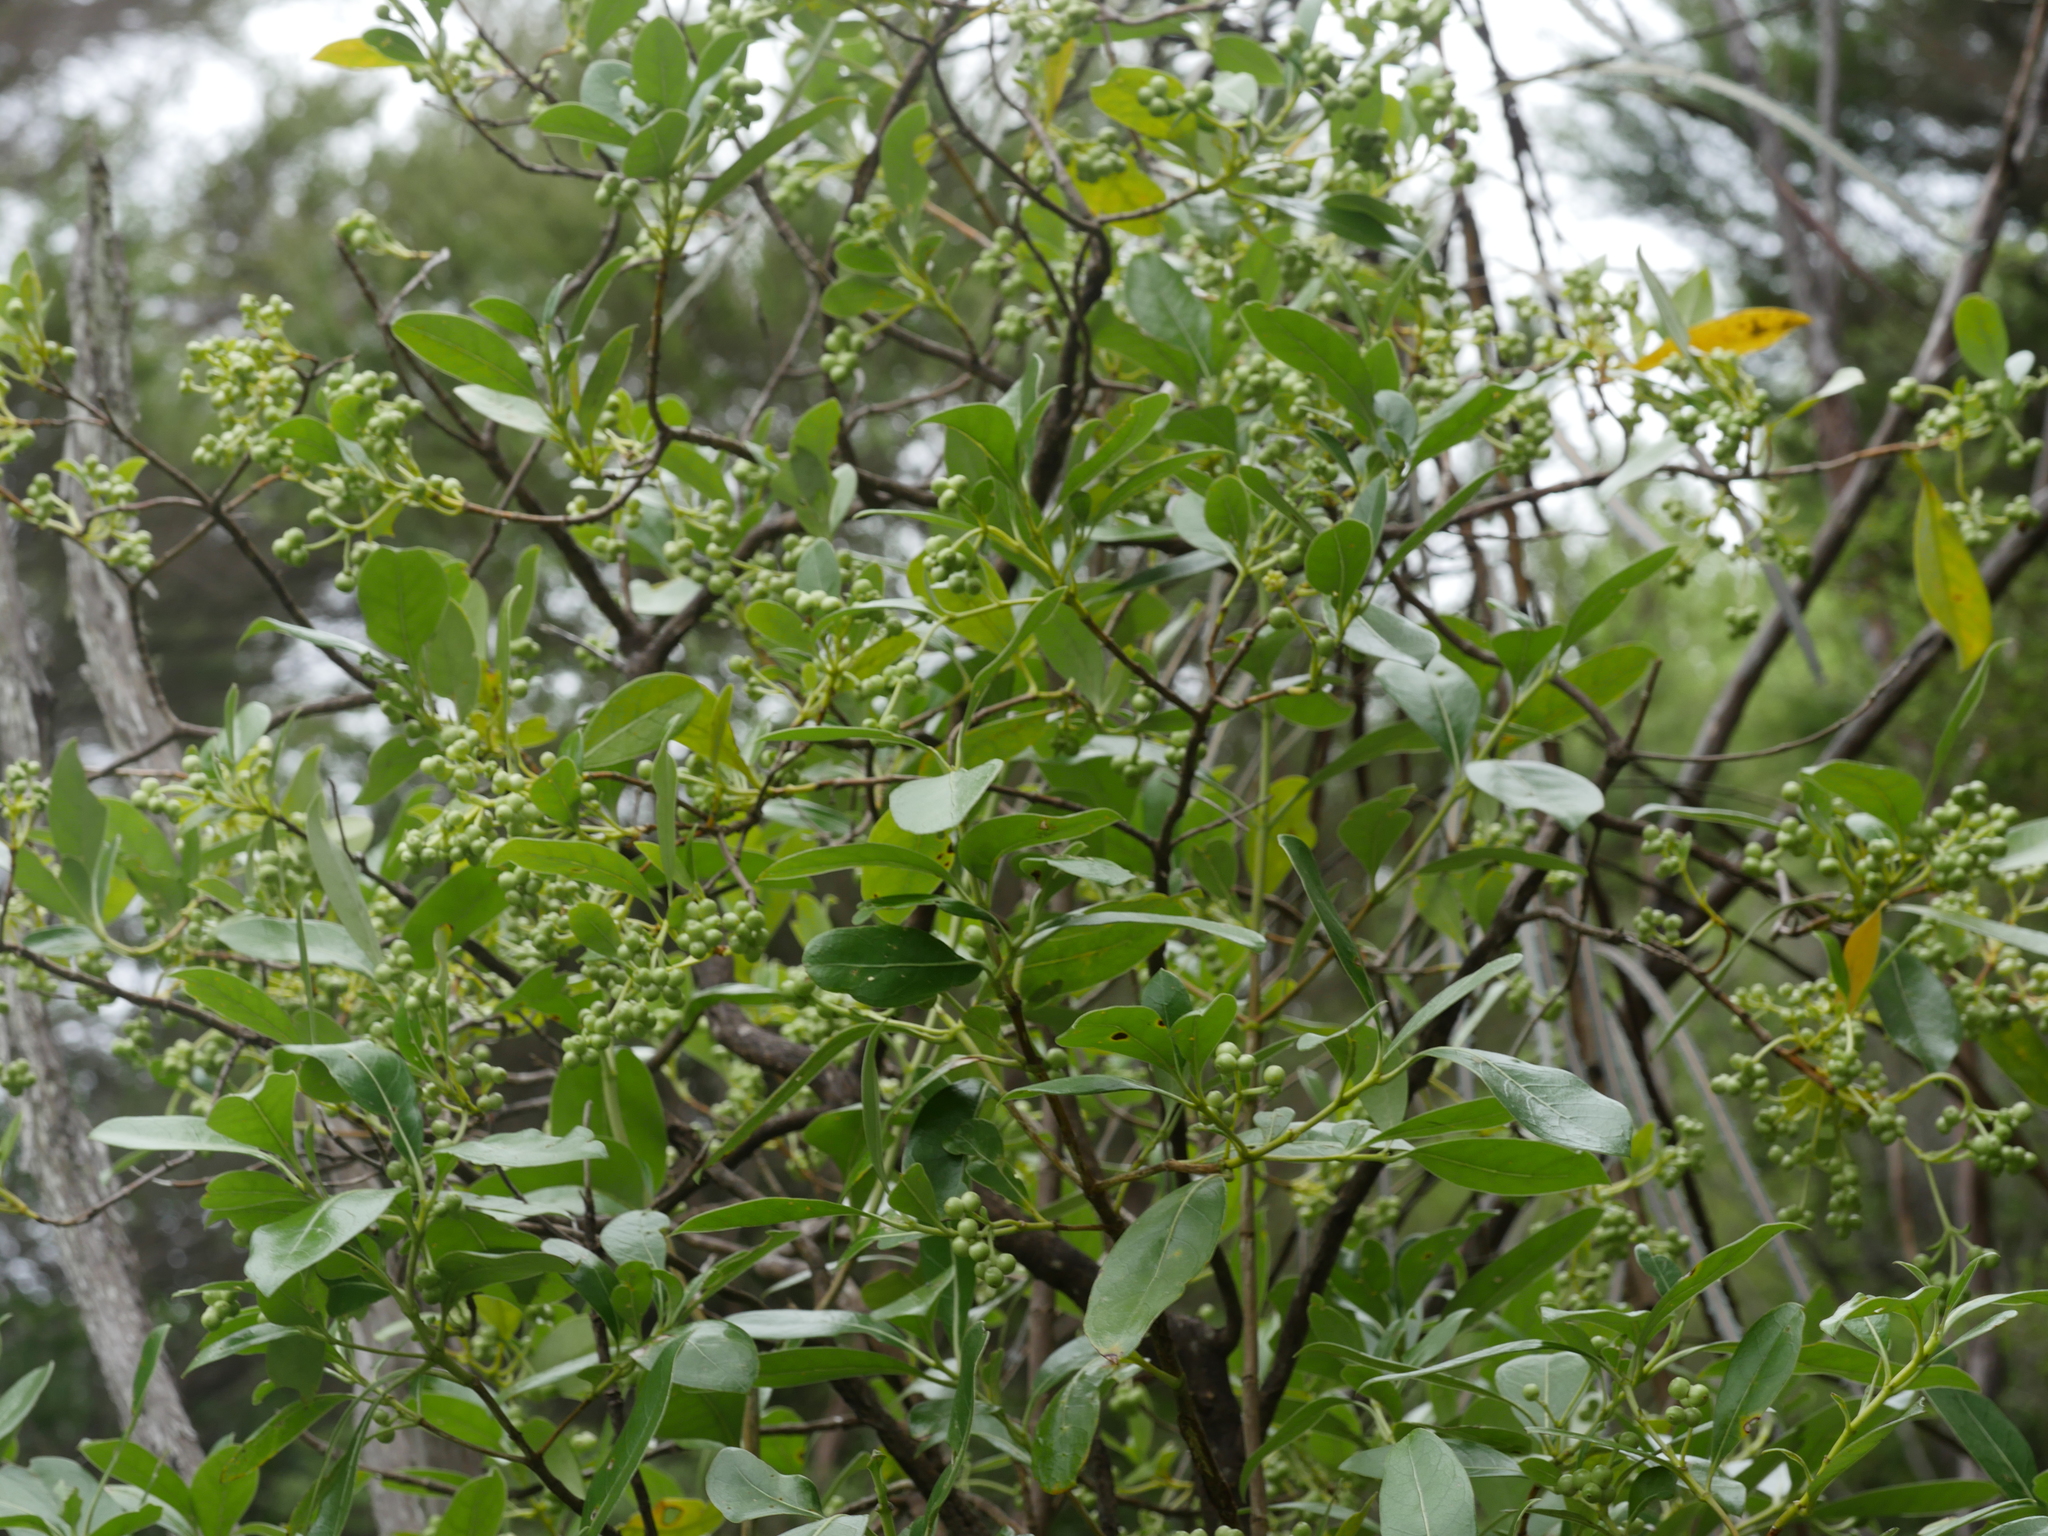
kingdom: Plantae
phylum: Tracheophyta
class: Magnoliopsida
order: Gentianales
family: Rubiaceae
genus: Coprosma
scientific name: Coprosma lucida
